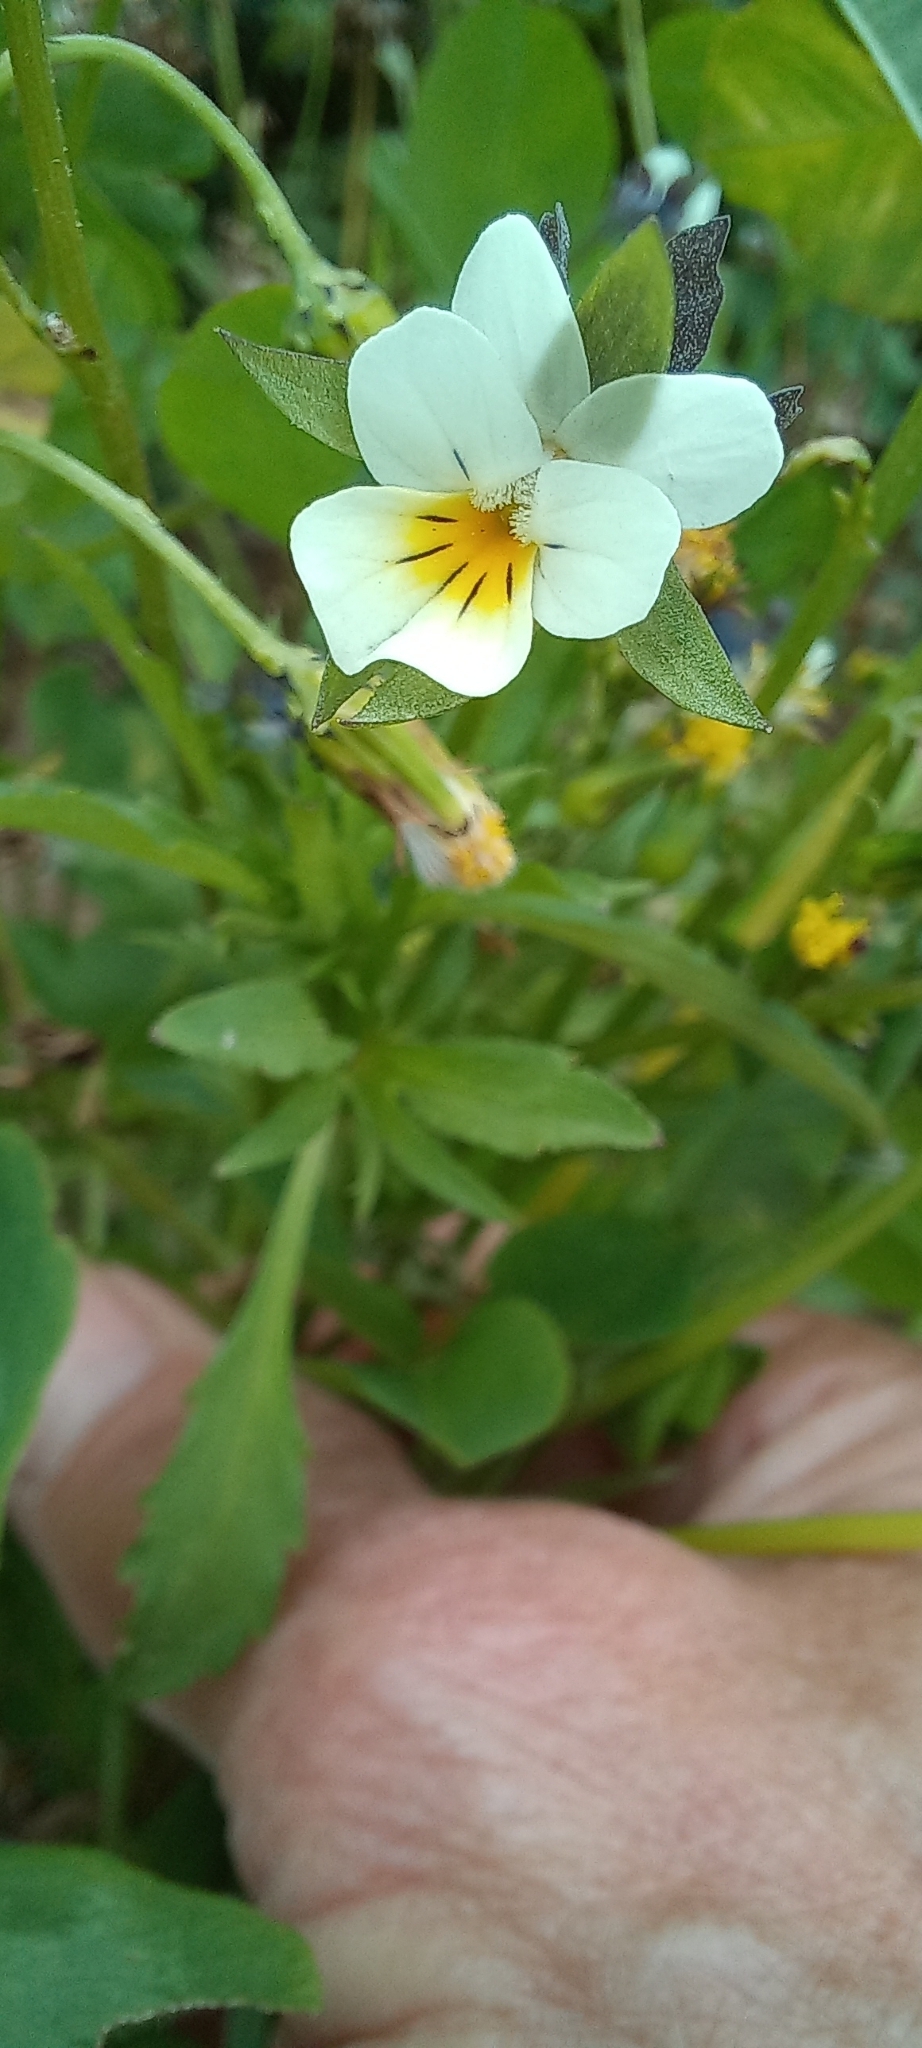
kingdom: Plantae
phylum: Tracheophyta
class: Magnoliopsida
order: Malpighiales
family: Violaceae
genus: Viola
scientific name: Viola arvensis
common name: Field pansy
